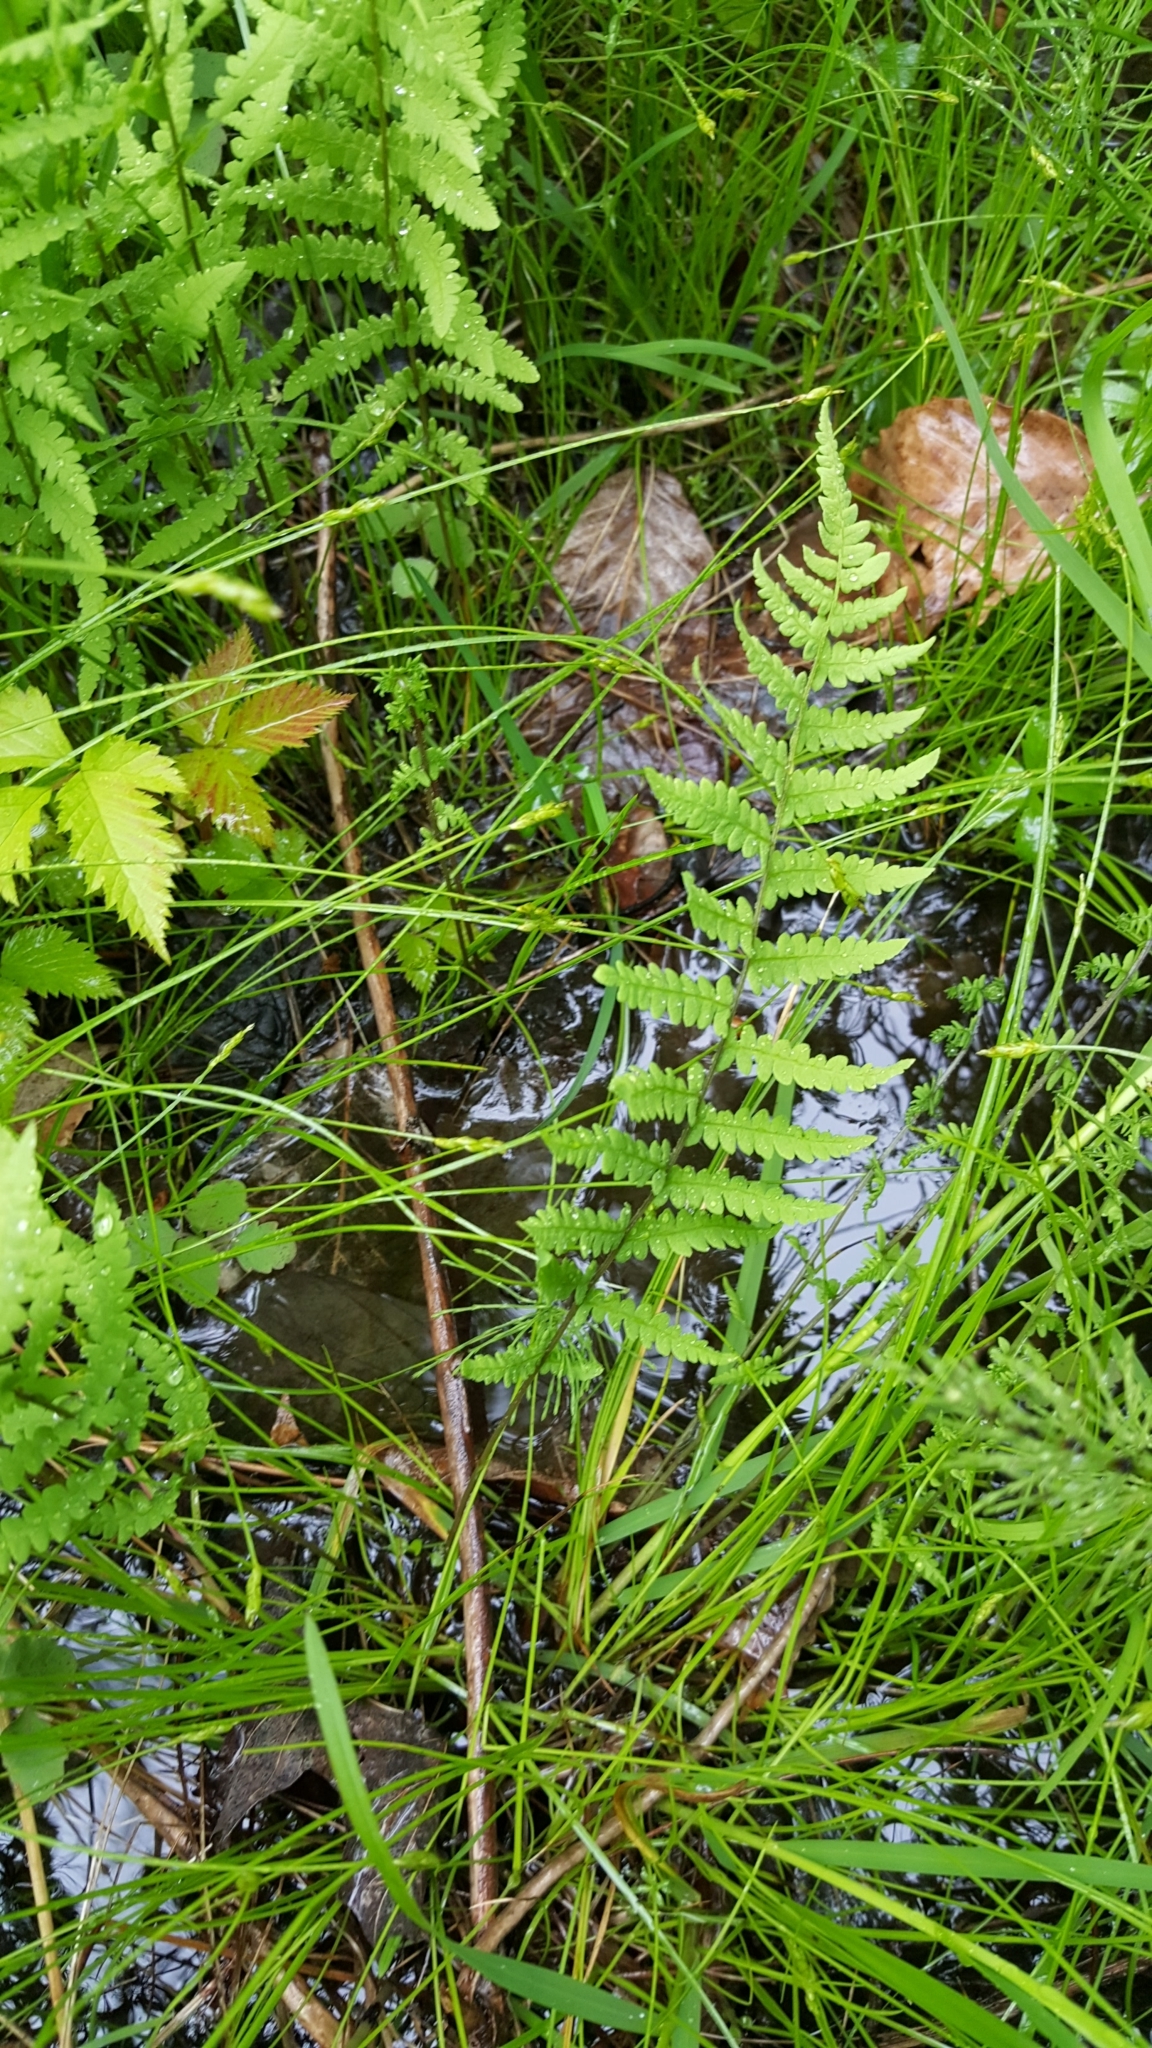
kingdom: Plantae
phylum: Tracheophyta
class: Polypodiopsida
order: Polypodiales
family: Thelypteridaceae
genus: Thelypteris
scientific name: Thelypteris palustris
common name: Marsh fern
